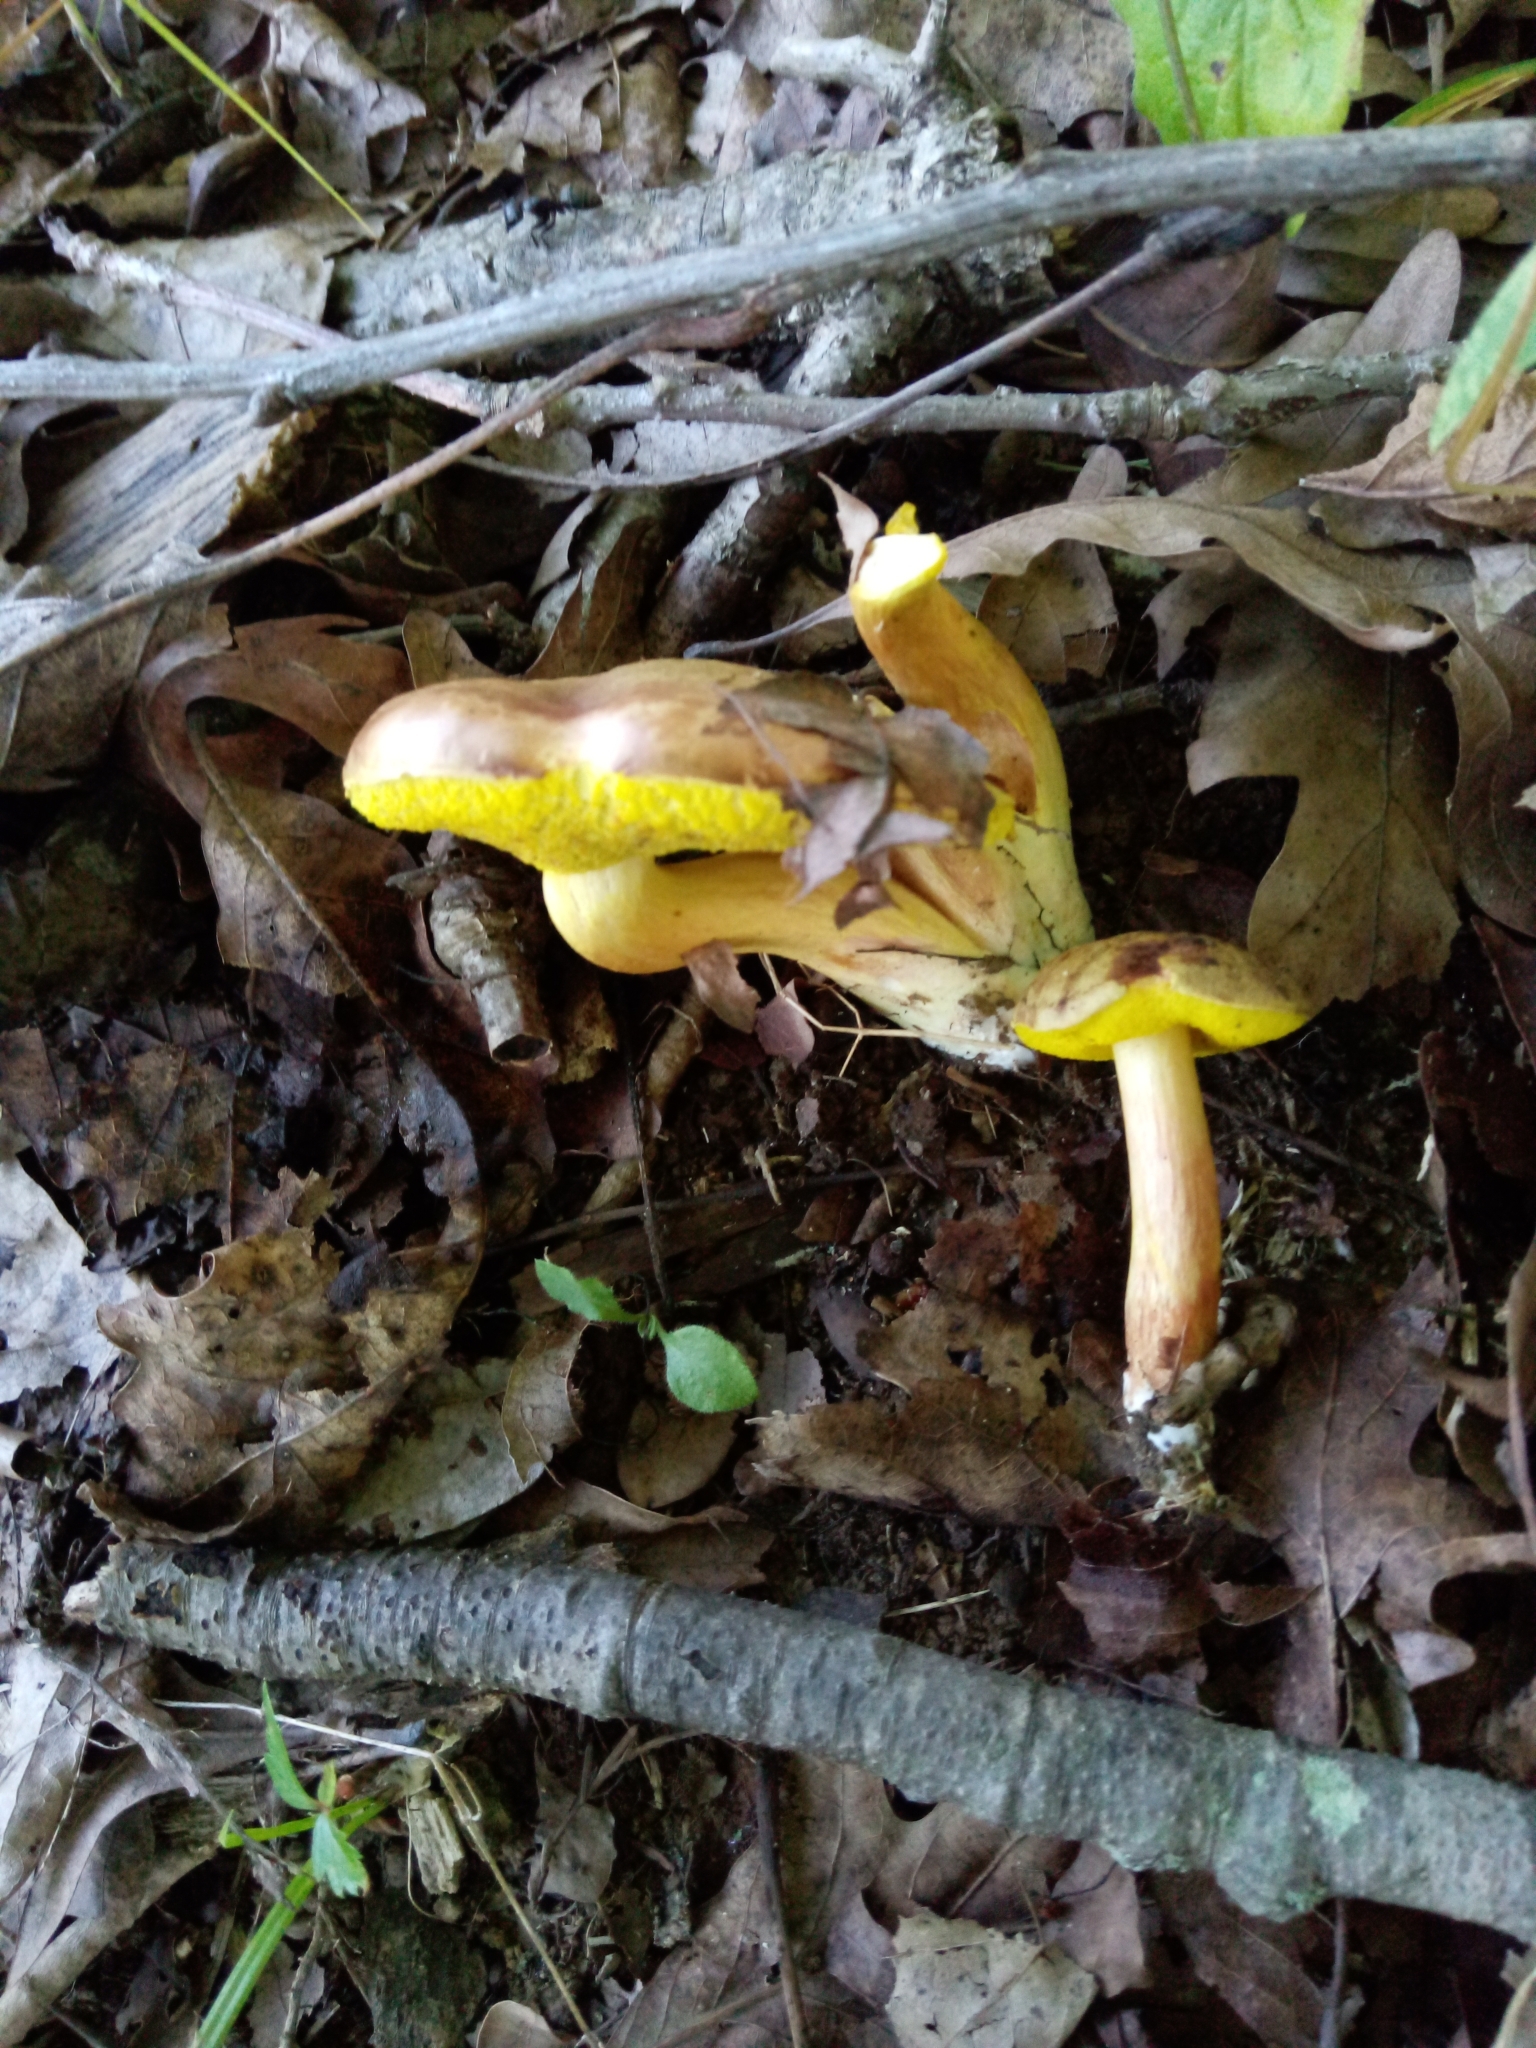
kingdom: Fungi
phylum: Basidiomycota
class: Agaricomycetes
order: Boletales
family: Boletaceae
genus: Aureoboletus
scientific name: Aureoboletus auriporus
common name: Sour gold-pored bolete
